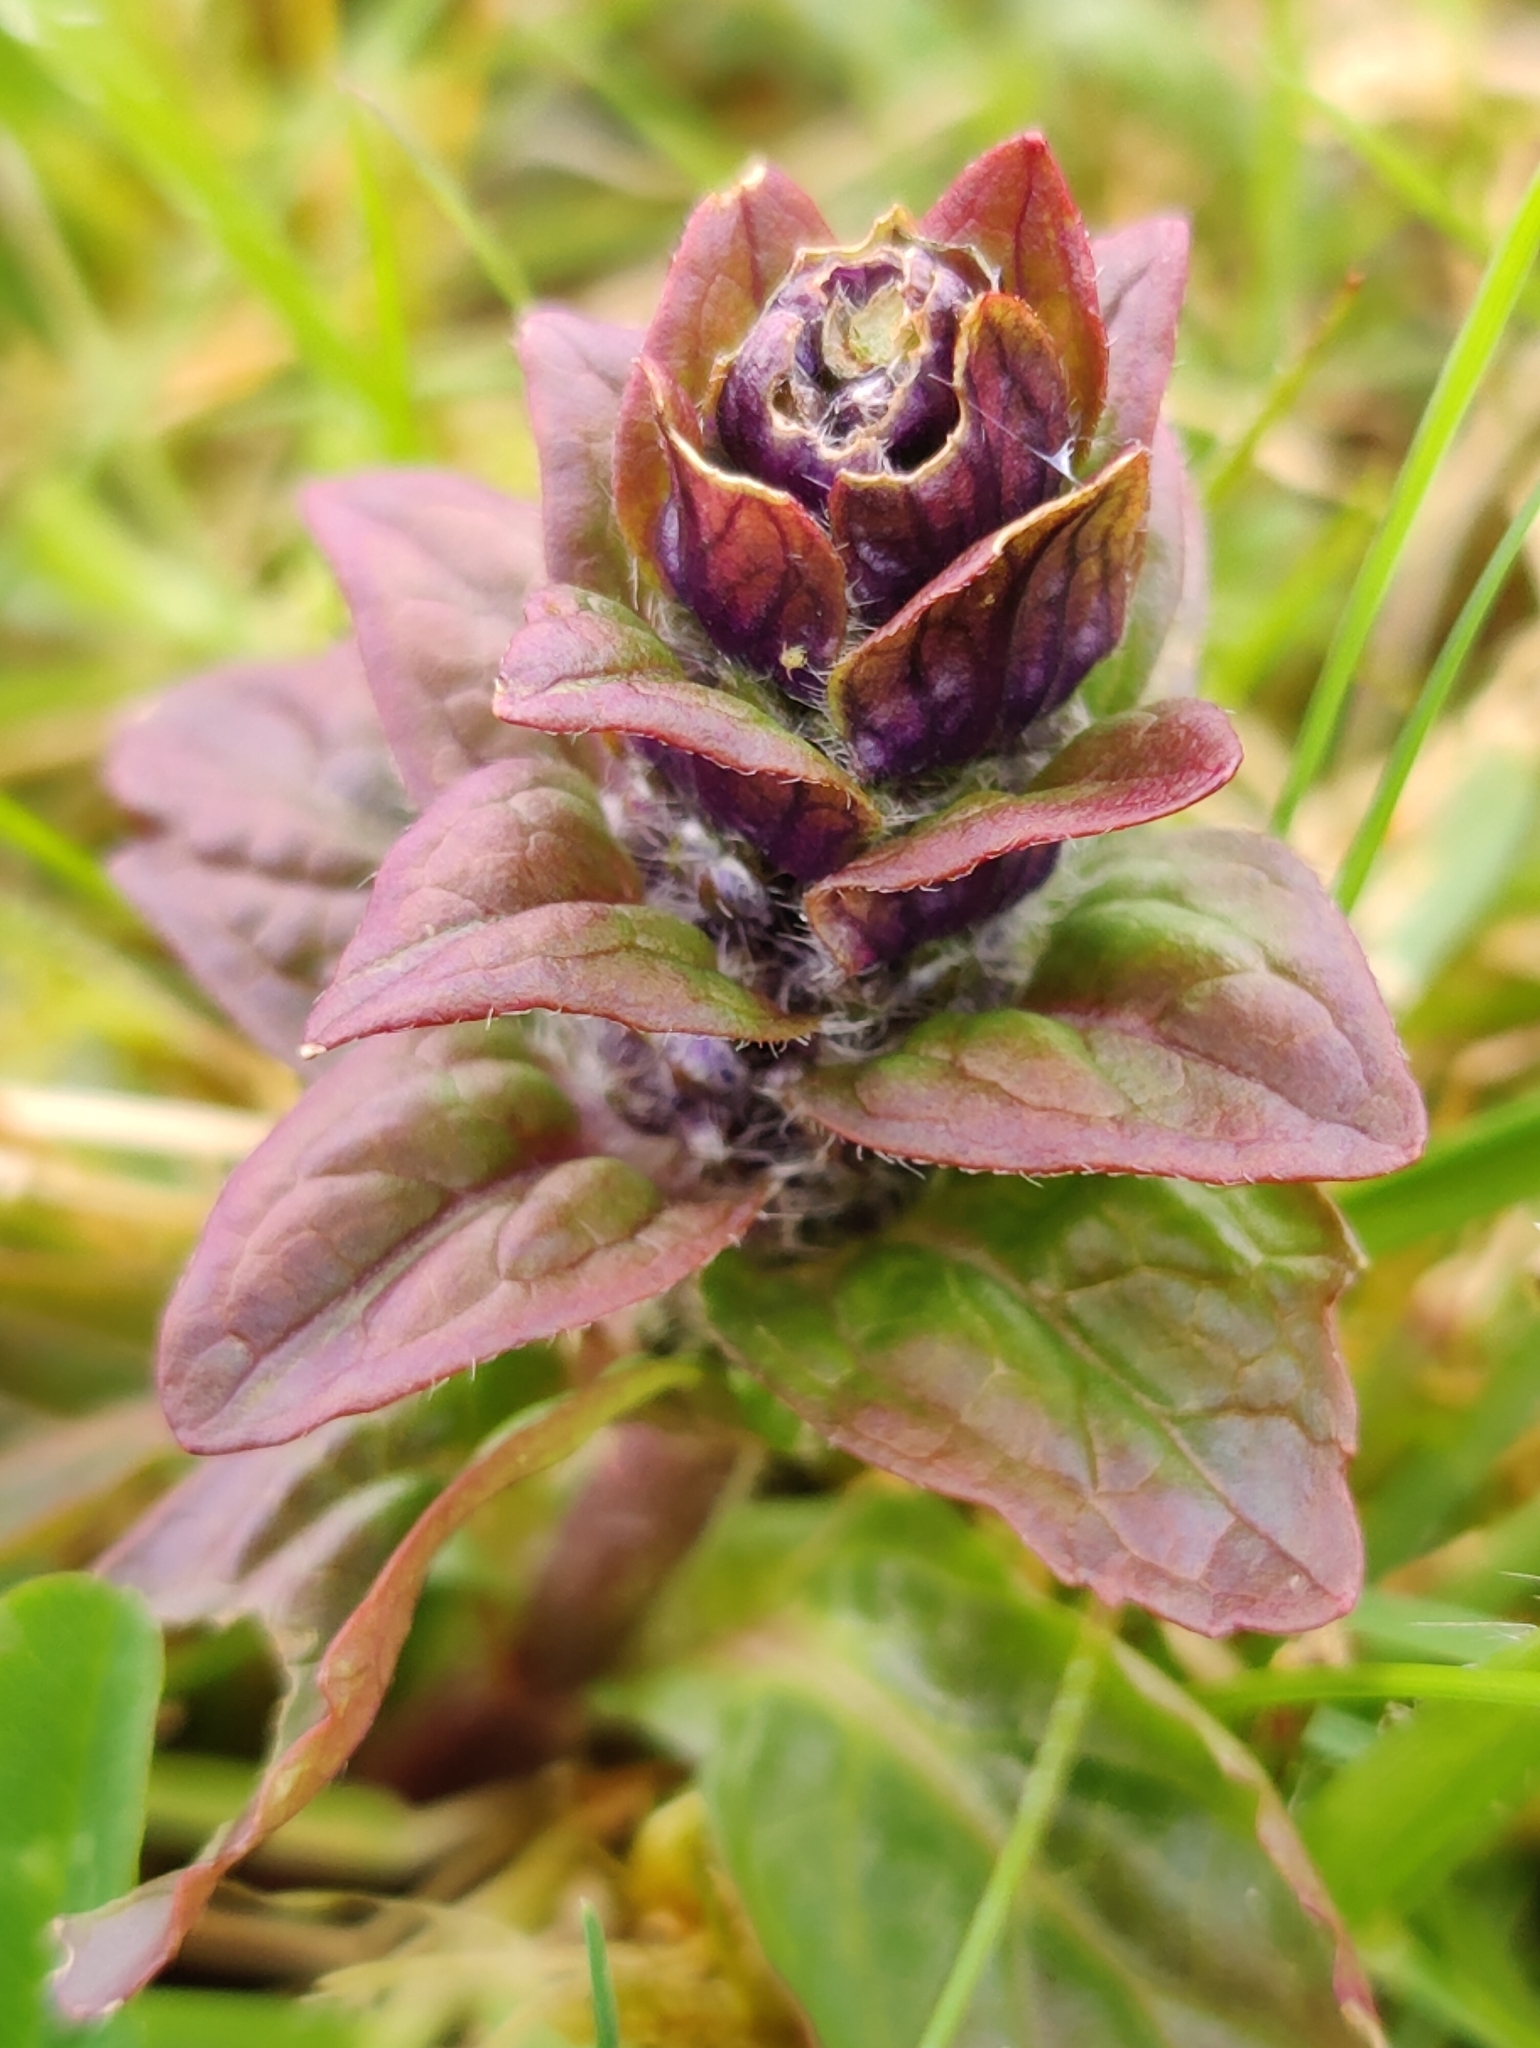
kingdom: Plantae
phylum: Tracheophyta
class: Magnoliopsida
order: Lamiales
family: Lamiaceae
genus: Ajuga
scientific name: Ajuga reptans
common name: Bugle
